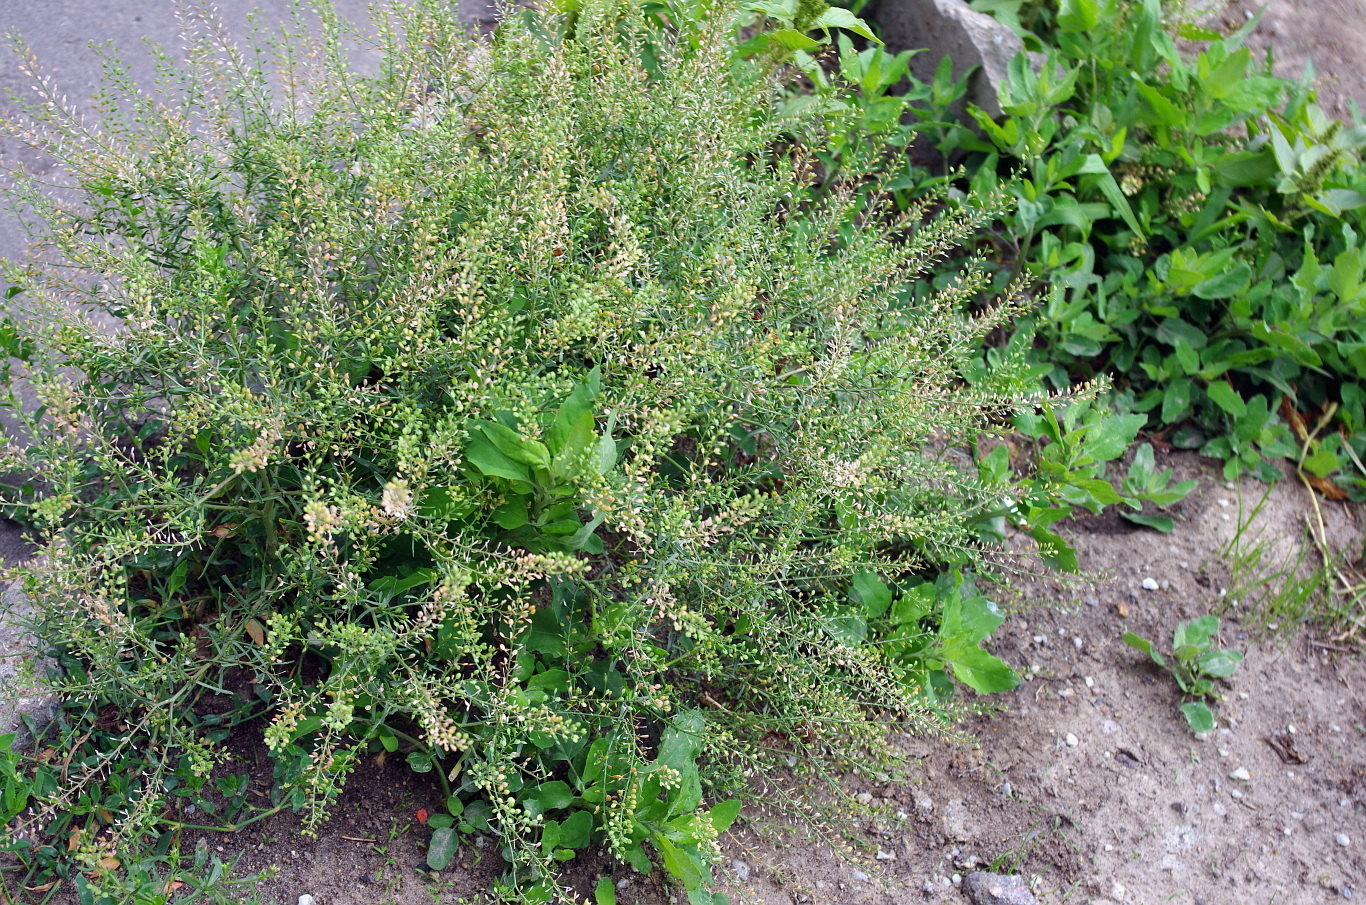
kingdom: Plantae
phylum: Tracheophyta
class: Magnoliopsida
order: Brassicales
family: Brassicaceae
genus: Lepidium
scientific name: Lepidium ruderale
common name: Narrow-leaved pepperwort
